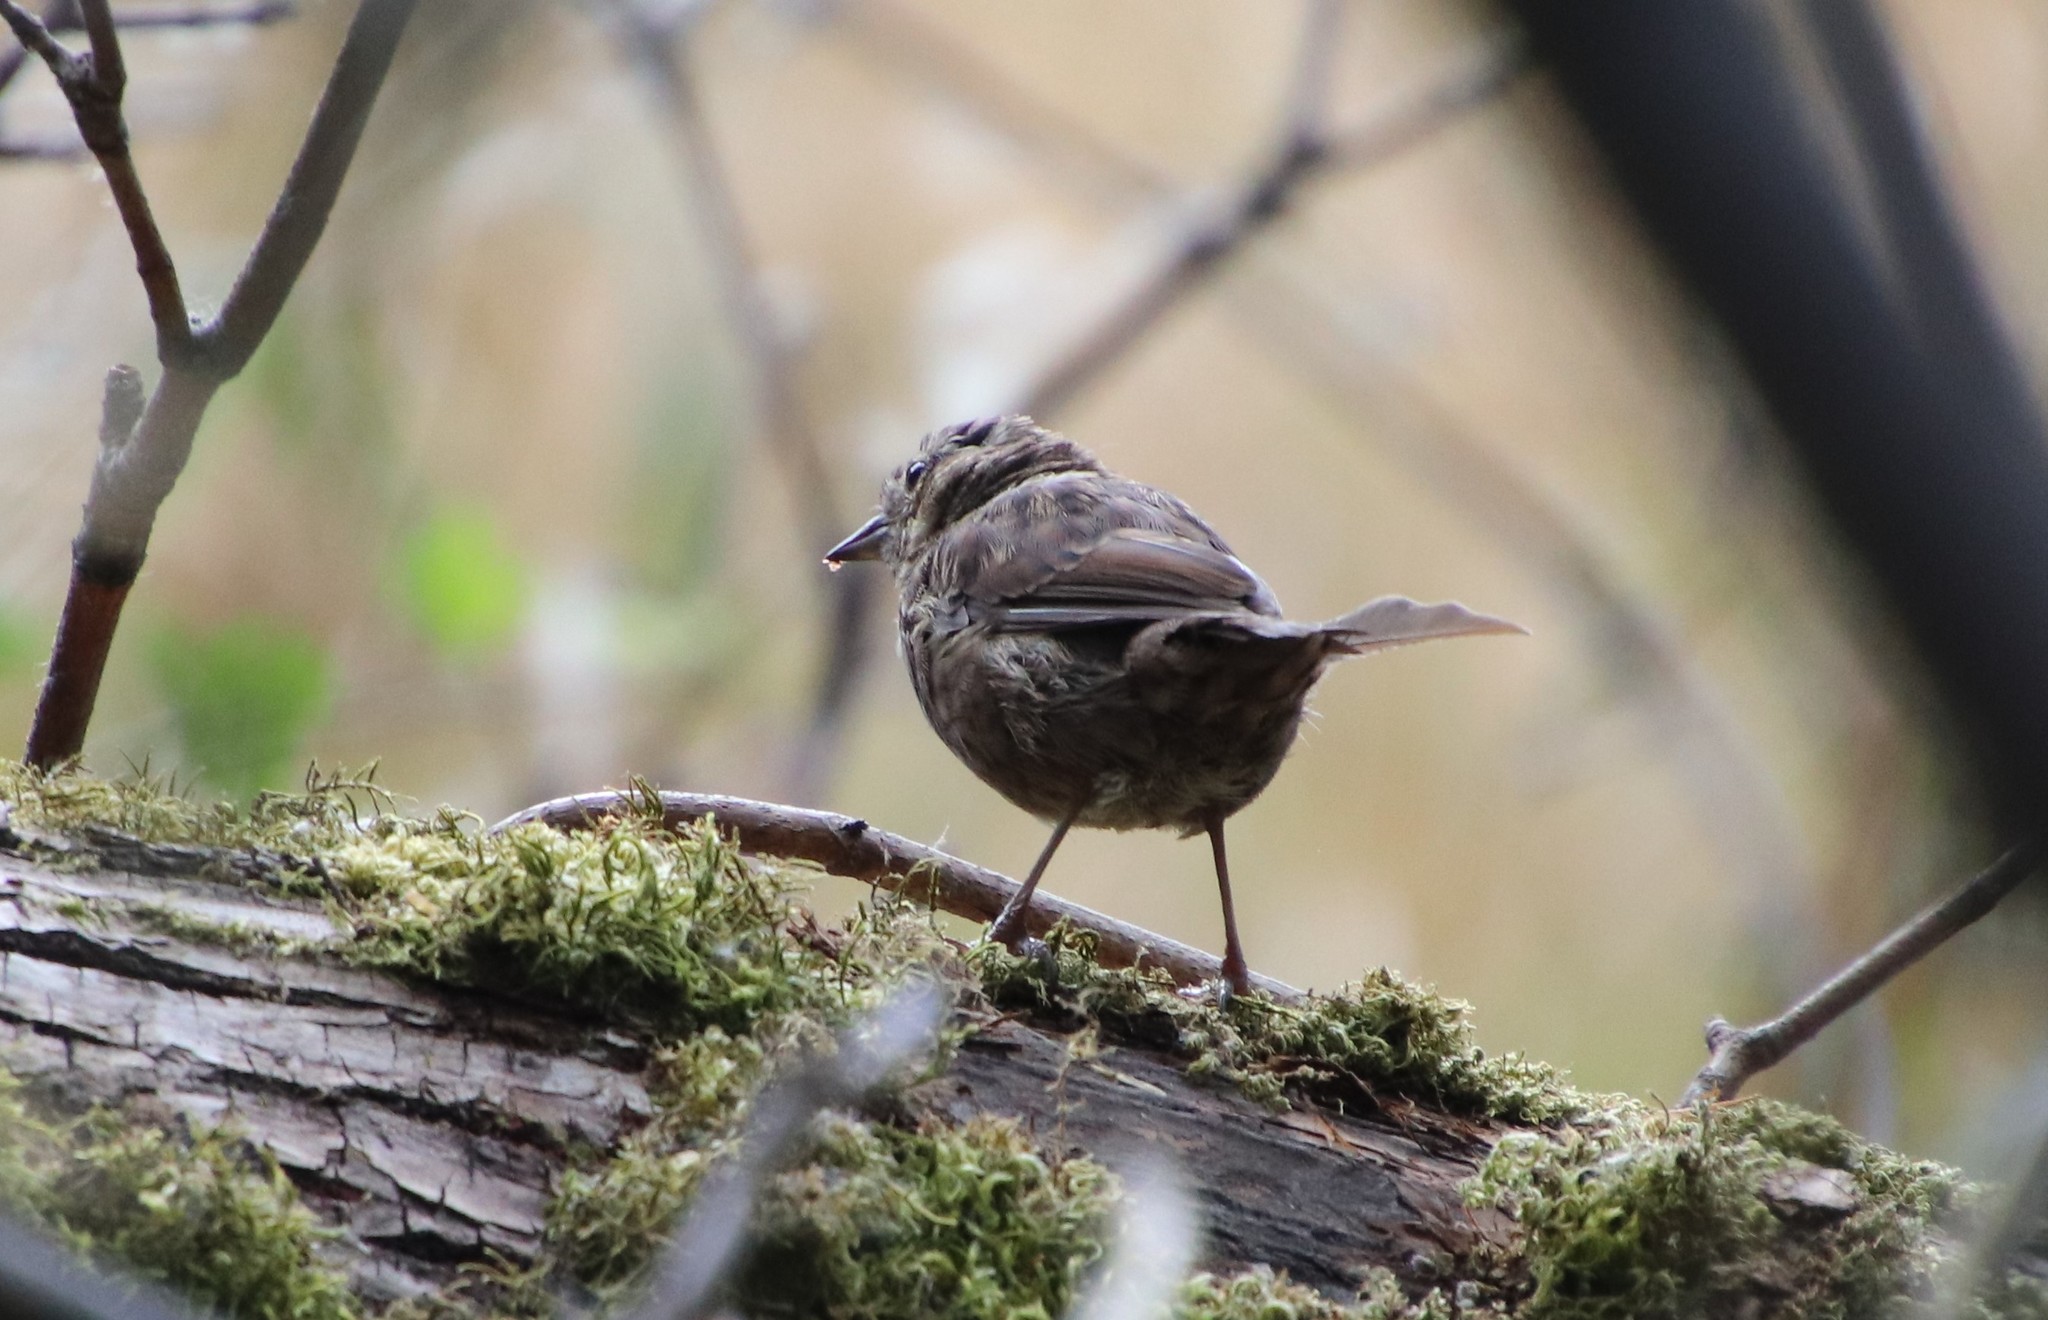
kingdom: Animalia
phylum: Chordata
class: Aves
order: Passeriformes
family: Passerellidae
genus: Melospiza
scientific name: Melospiza melodia
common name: Song sparrow
